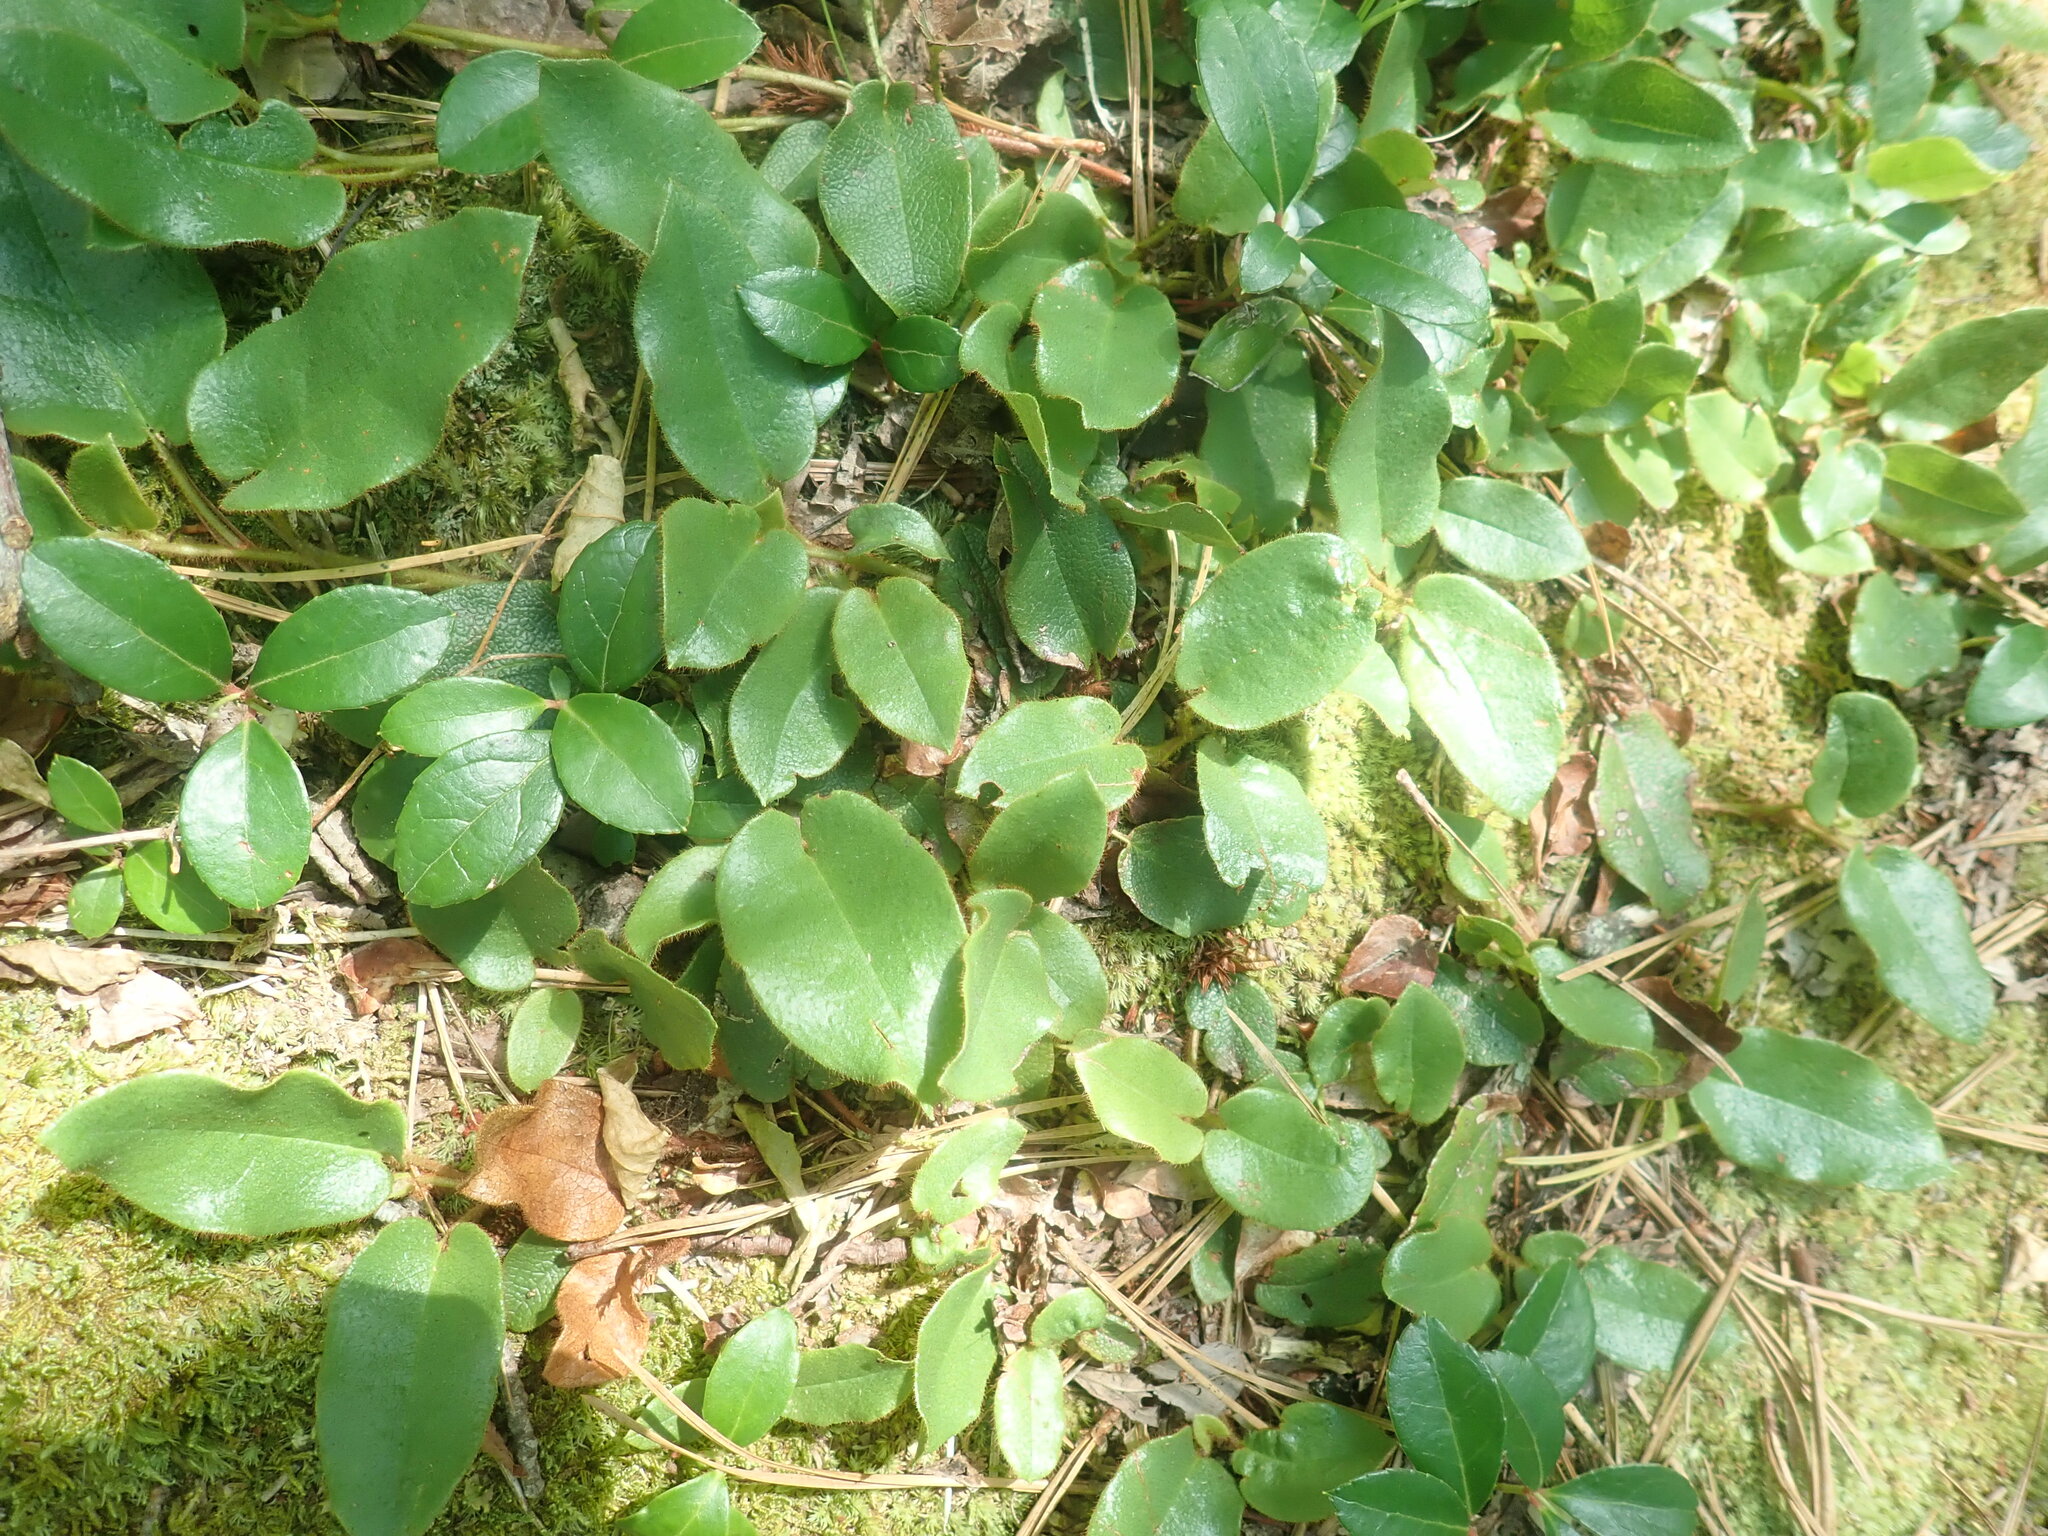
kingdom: Plantae
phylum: Tracheophyta
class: Magnoliopsida
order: Ericales
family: Ericaceae
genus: Epigaea
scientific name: Epigaea repens
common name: Gravelroot
